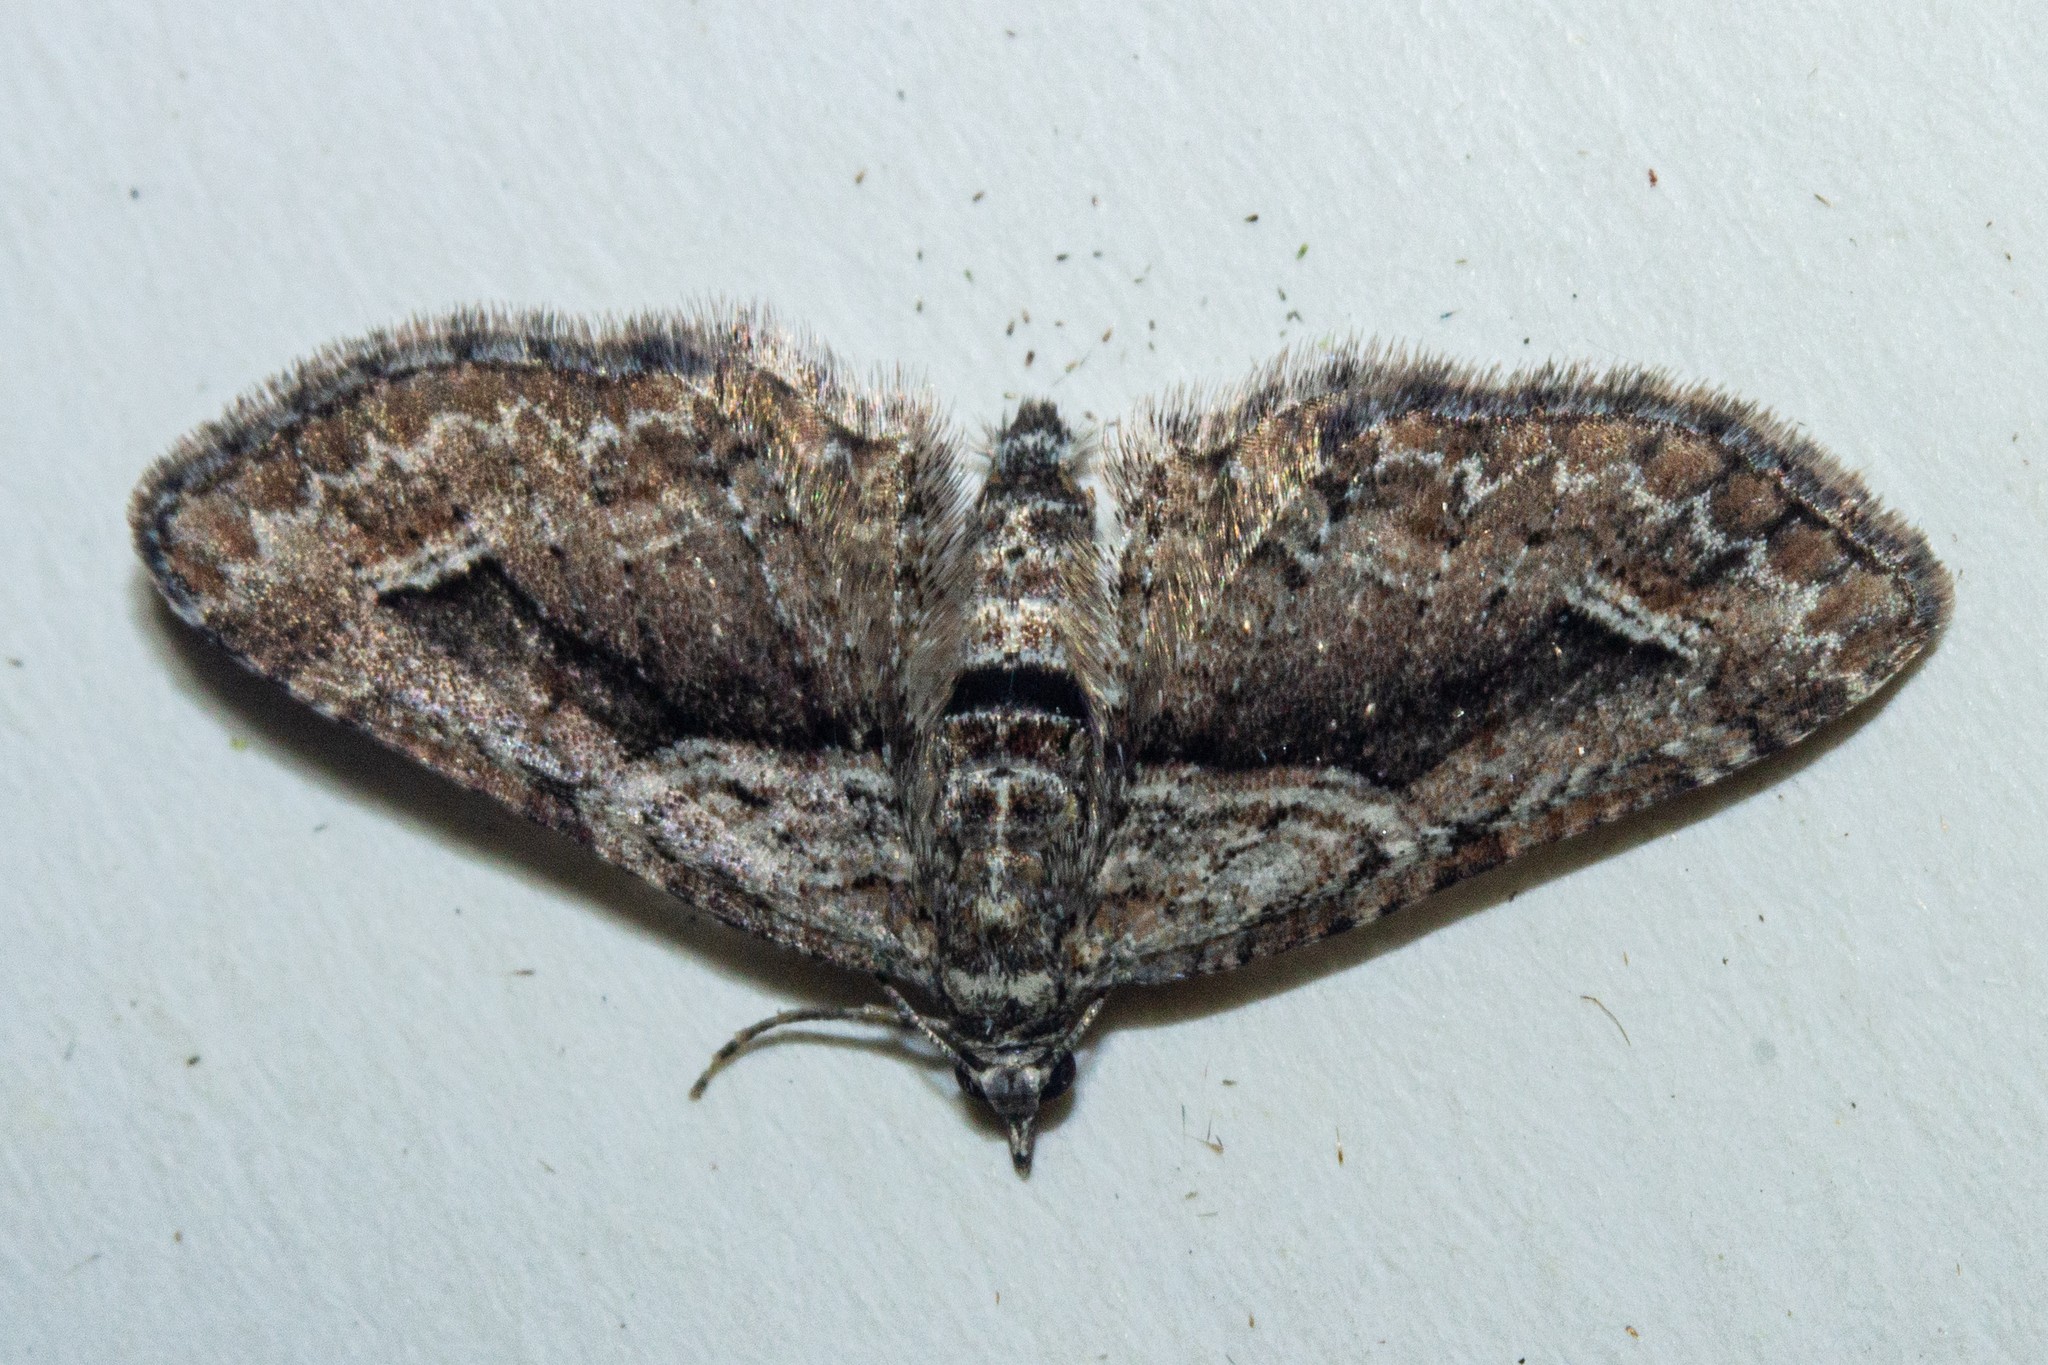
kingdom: Animalia
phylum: Arthropoda
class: Insecta
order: Lepidoptera
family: Geometridae
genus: Idaea
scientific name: Idaea mutanda
